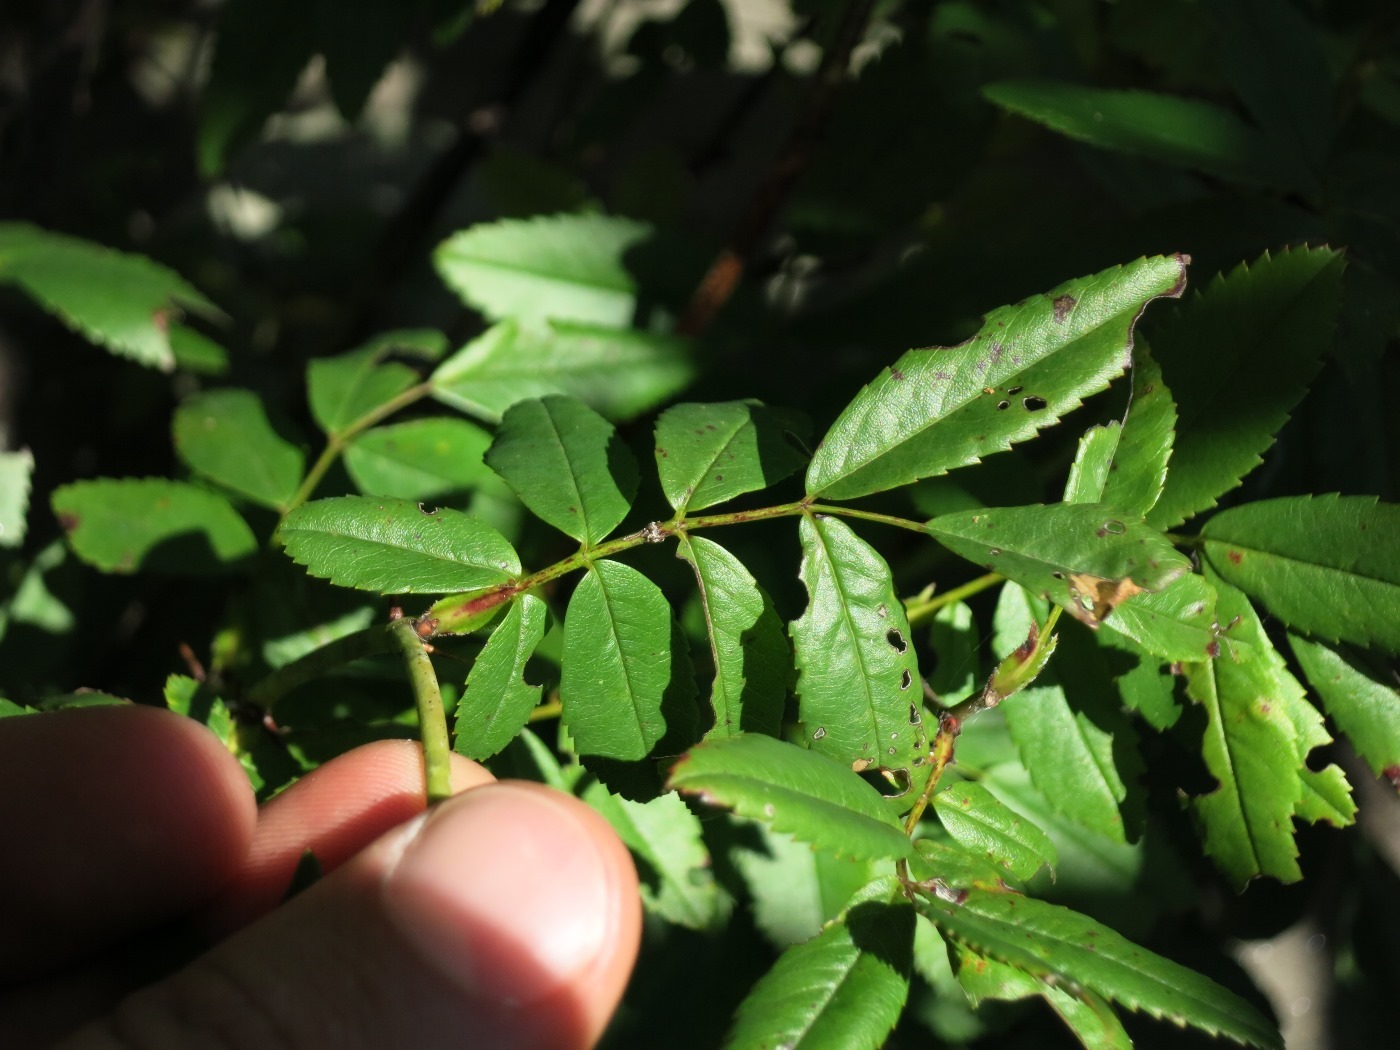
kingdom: Plantae
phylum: Tracheophyta
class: Magnoliopsida
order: Rosales
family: Rosaceae
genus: Rosa
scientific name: Rosa carolina
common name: Pasture rose
